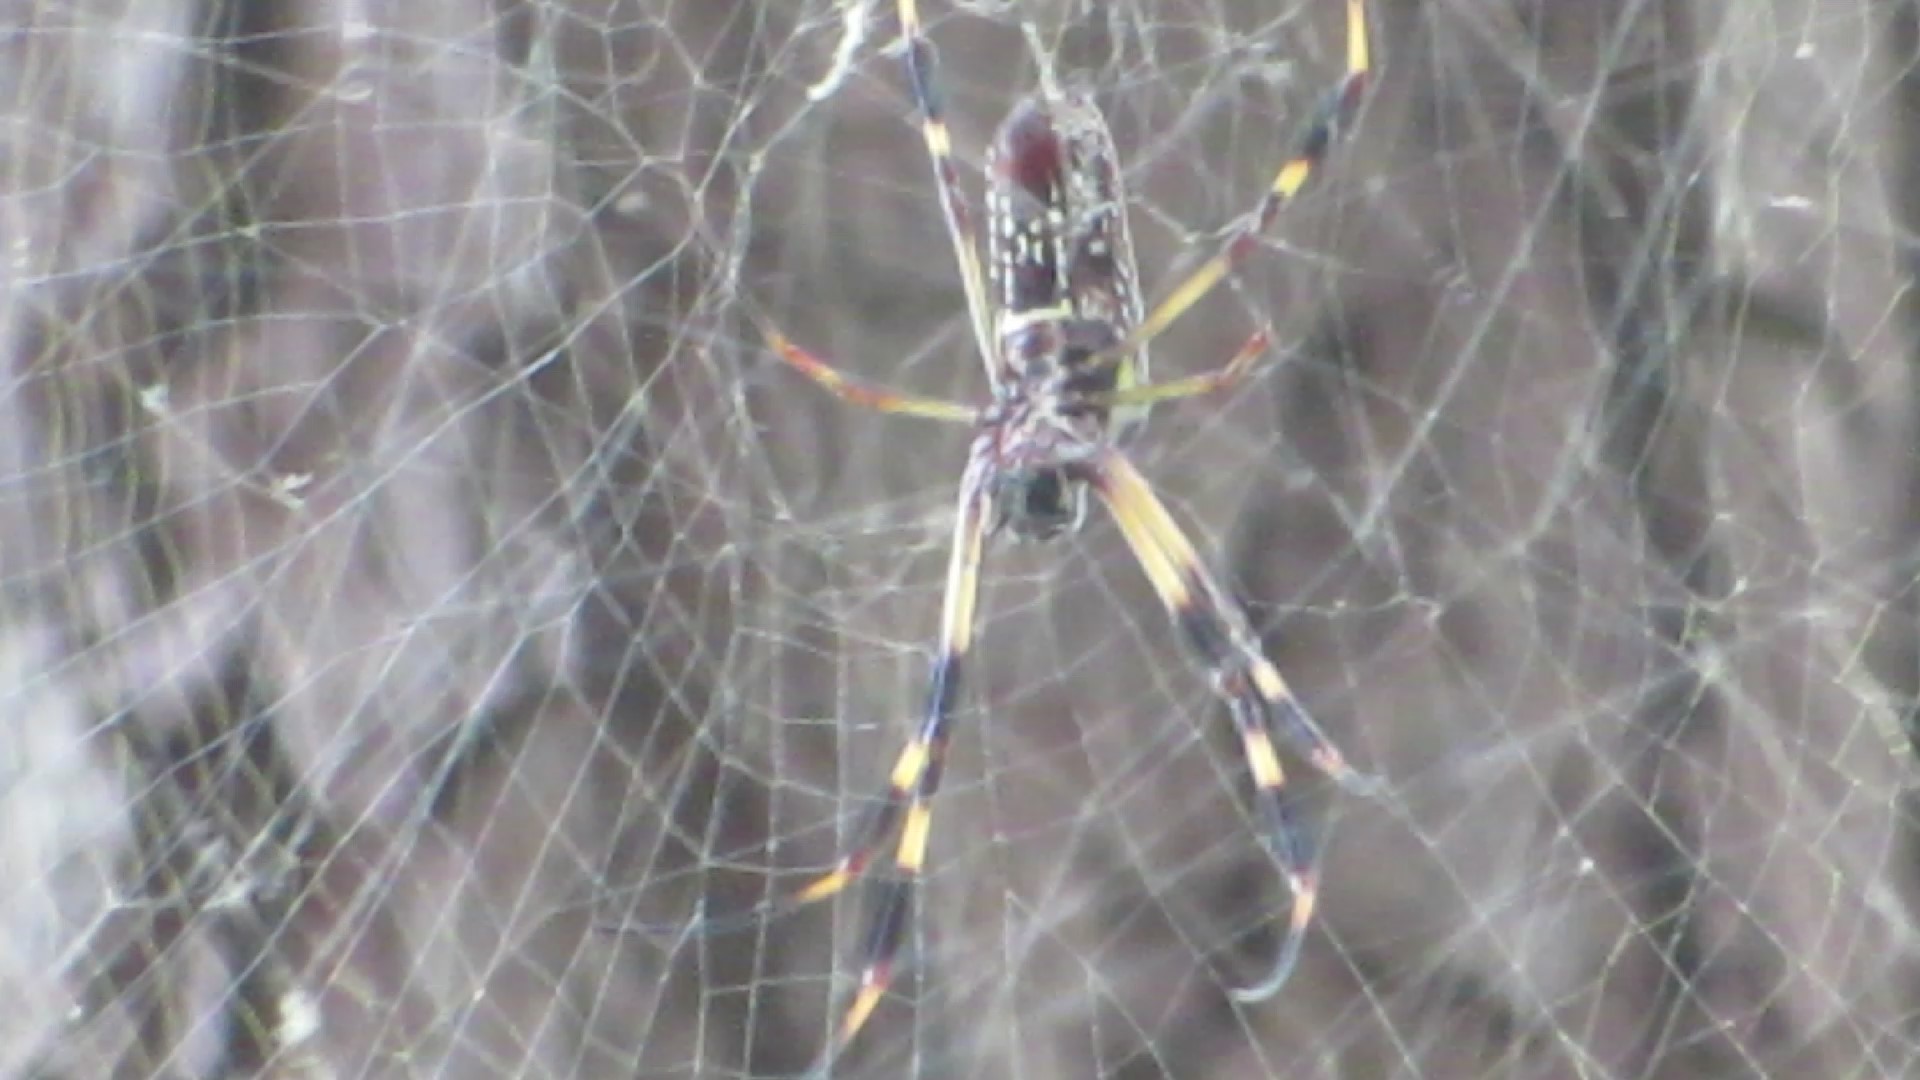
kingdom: Animalia
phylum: Arthropoda
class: Arachnida
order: Araneae
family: Araneidae
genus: Trichonephila
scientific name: Trichonephila clavipes
